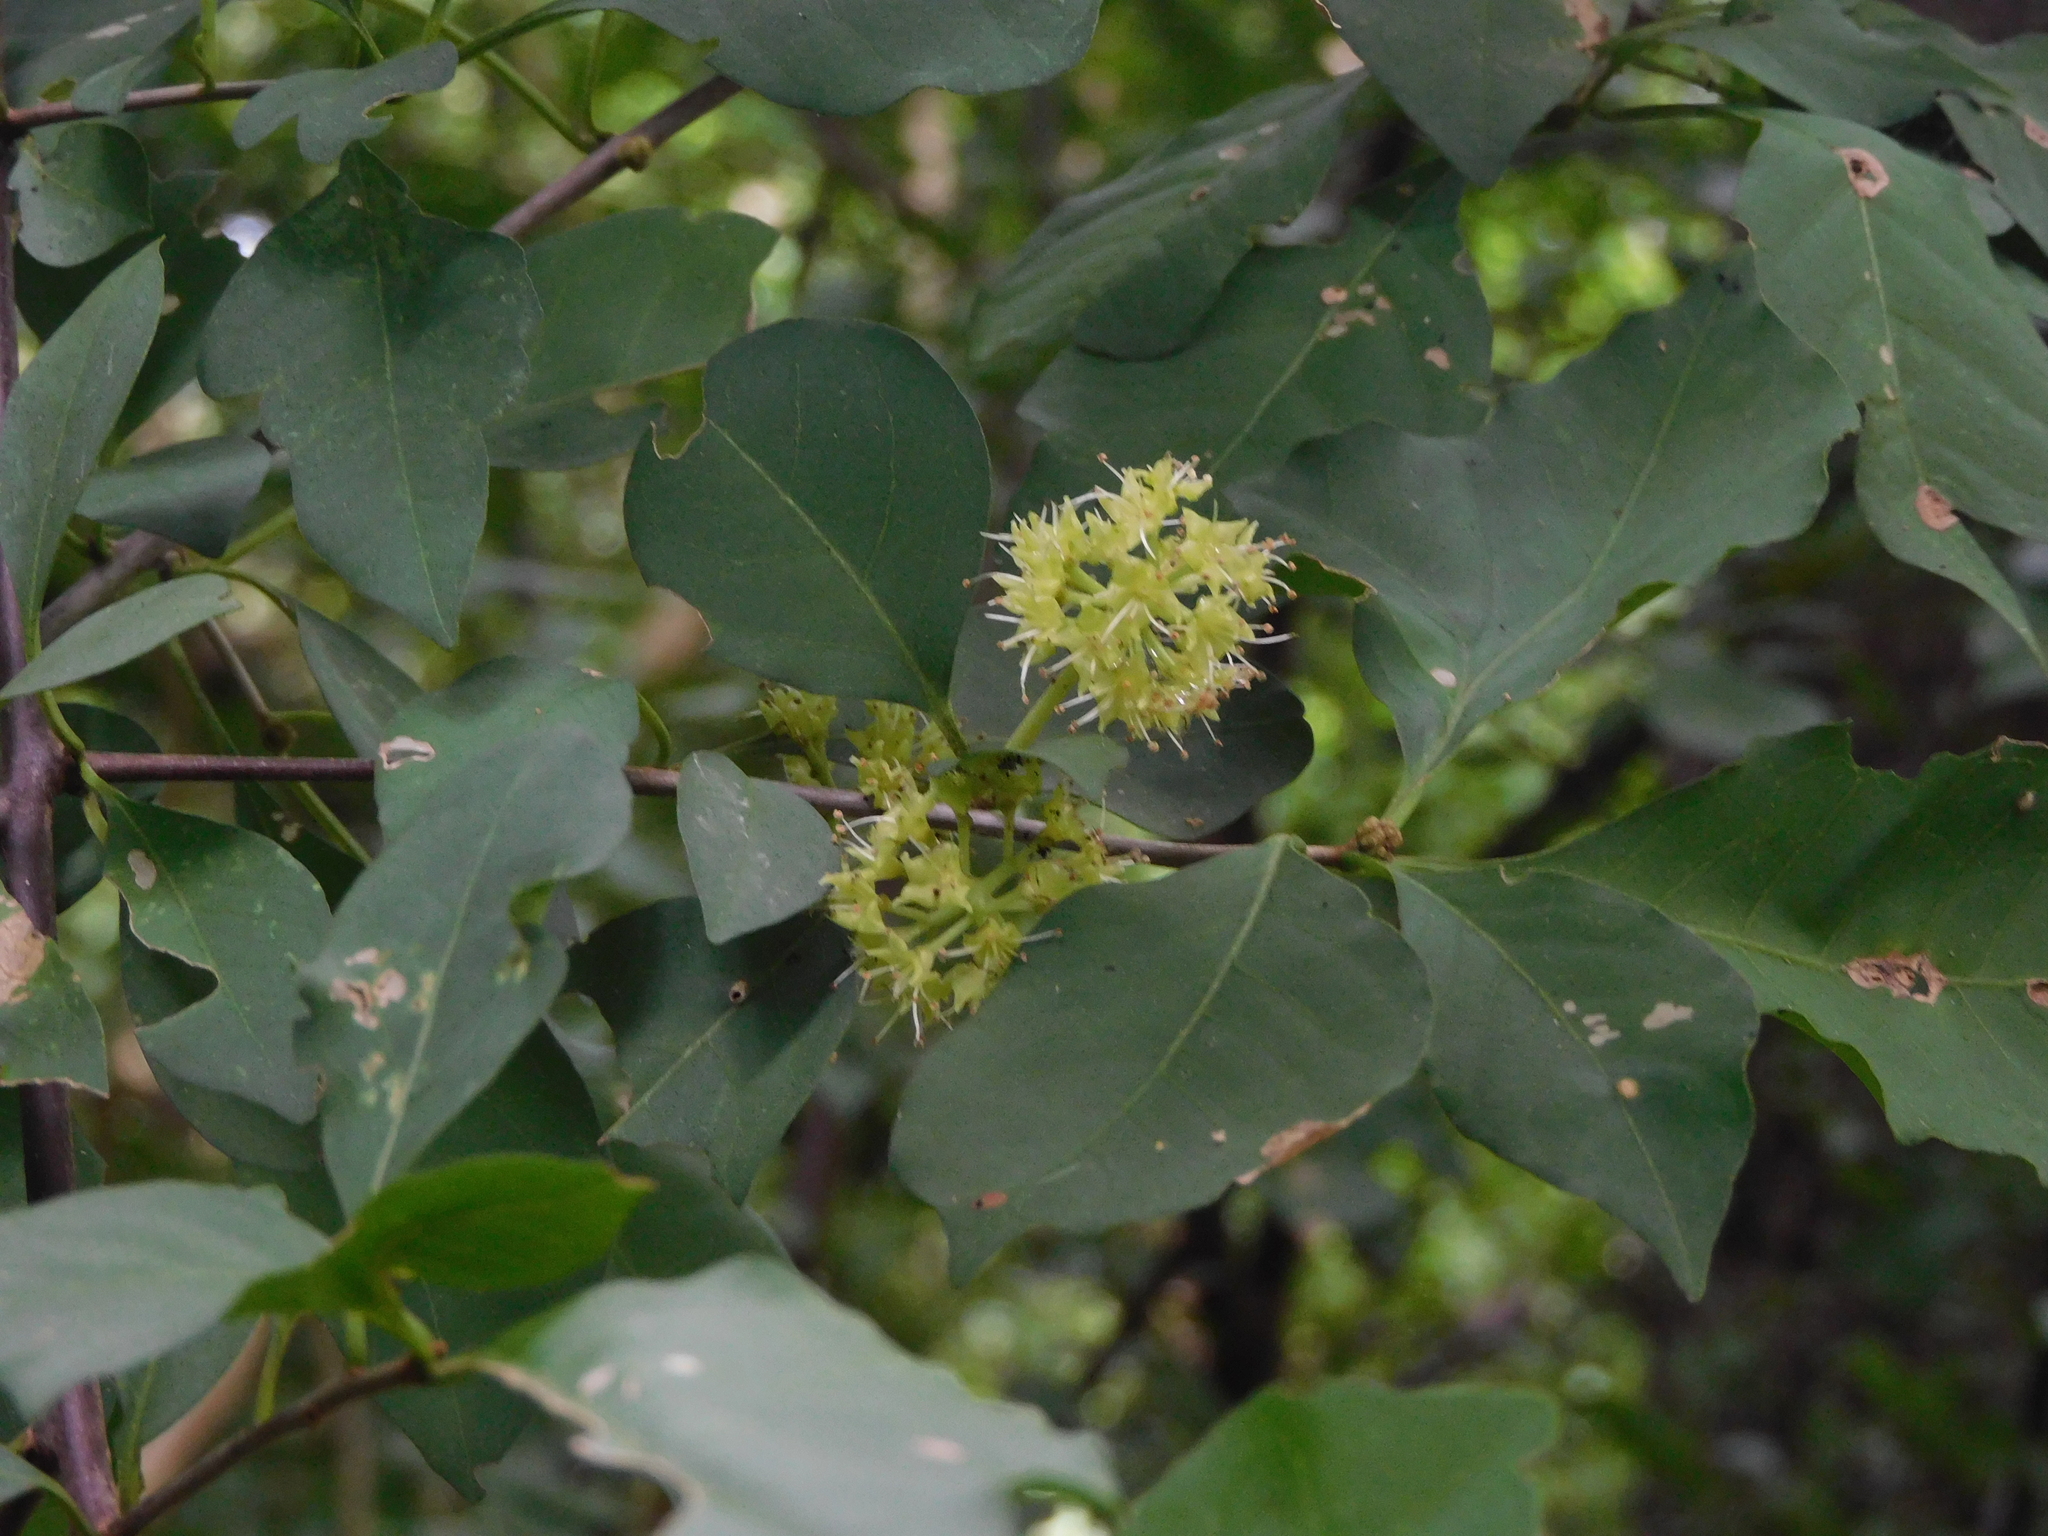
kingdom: Plantae
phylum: Tracheophyta
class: Magnoliopsida
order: Caryophyllales
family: Nyctaginaceae
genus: Pisonia
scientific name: Pisonia aculeata
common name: Cockspur vine
